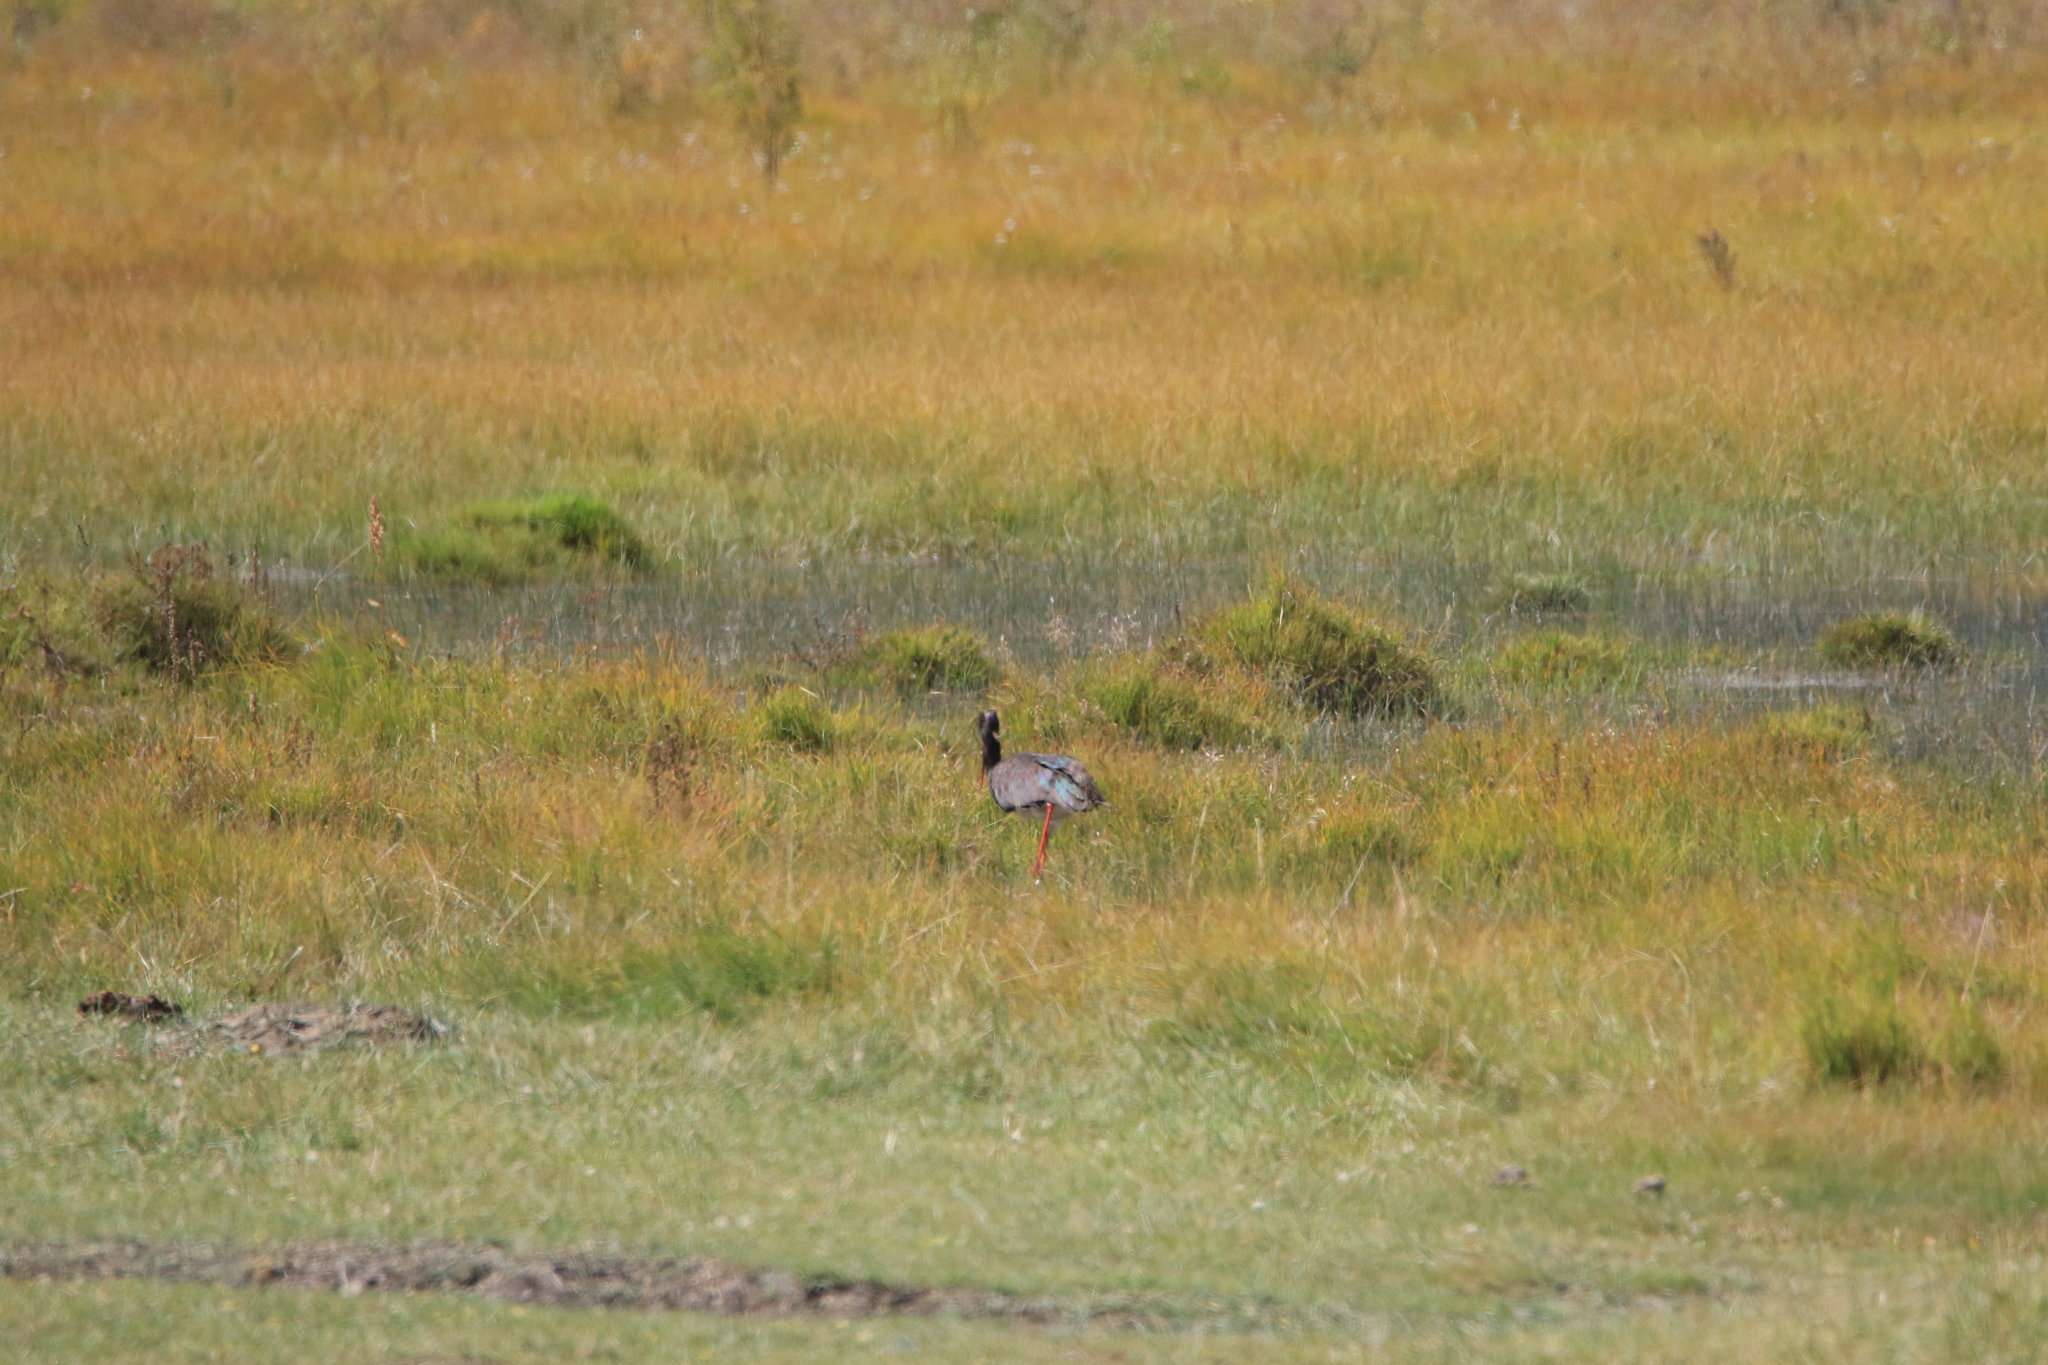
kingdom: Animalia
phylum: Chordata
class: Aves
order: Ciconiiformes
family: Ciconiidae
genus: Ciconia
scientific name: Ciconia nigra
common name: Black stork
